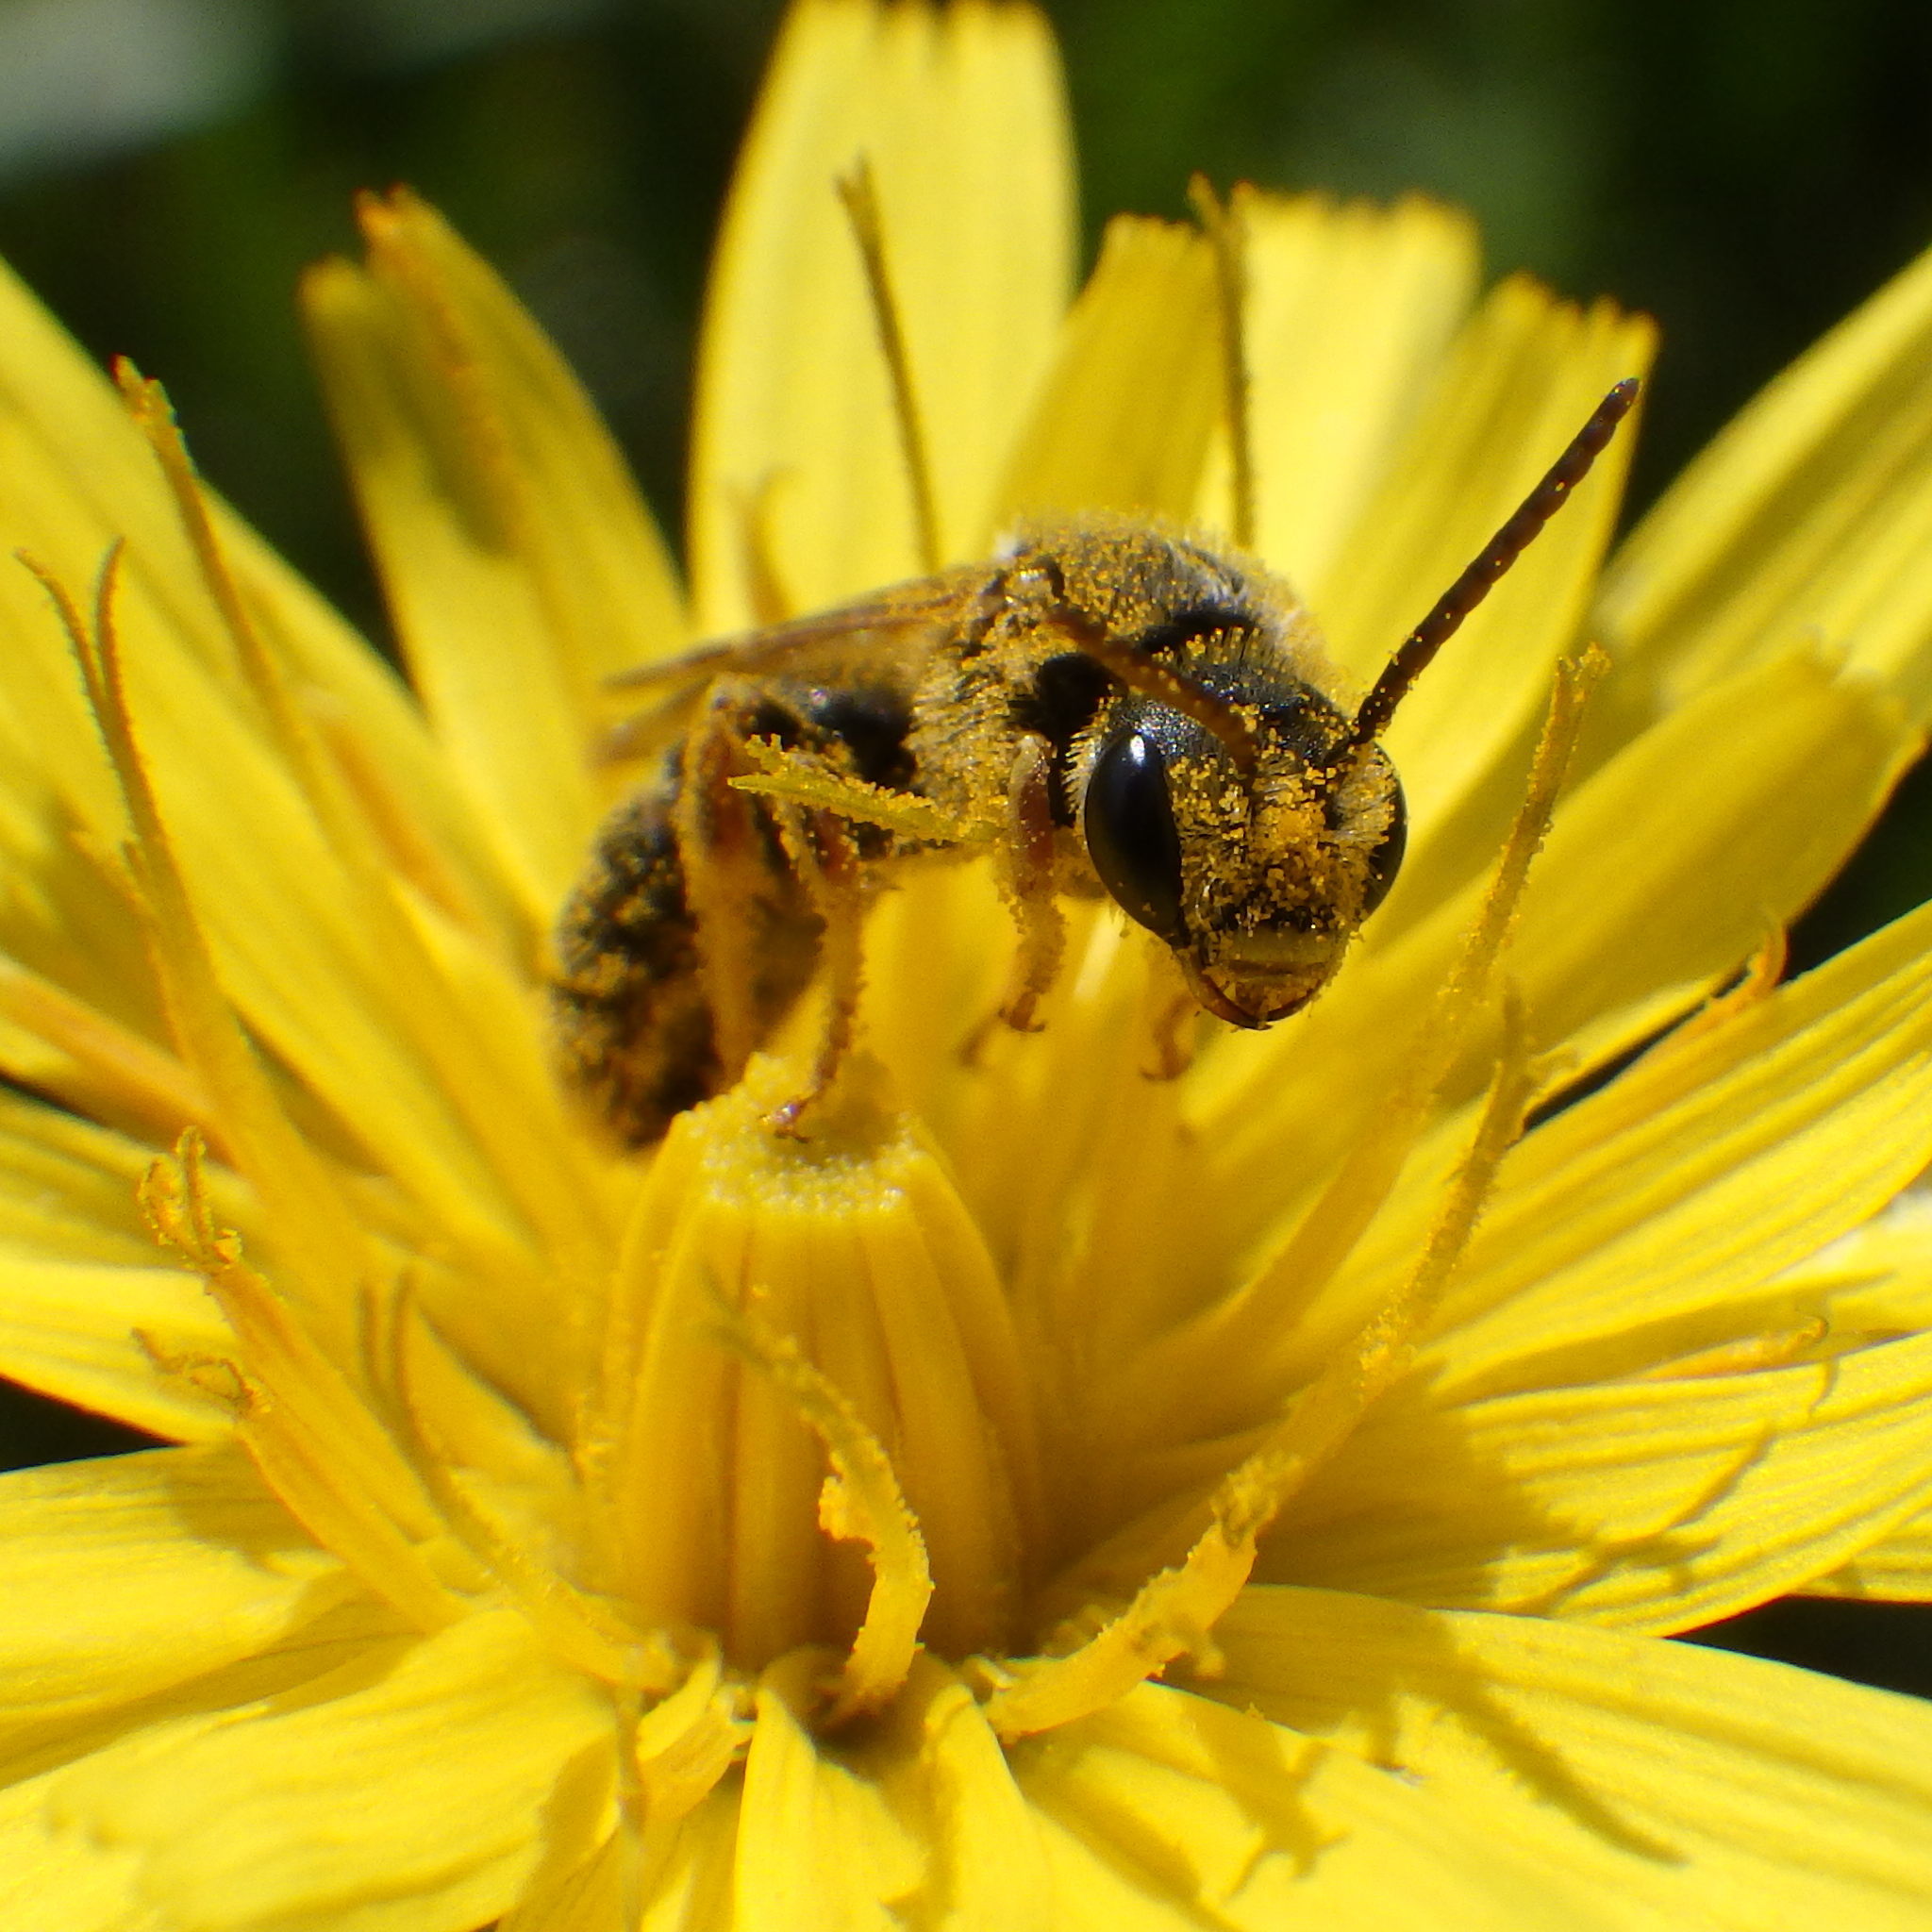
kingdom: Animalia
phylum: Arthropoda
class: Insecta
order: Hymenoptera
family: Halictidae
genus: Halictus
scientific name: Halictus ligatus
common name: Ligated furrow bee
